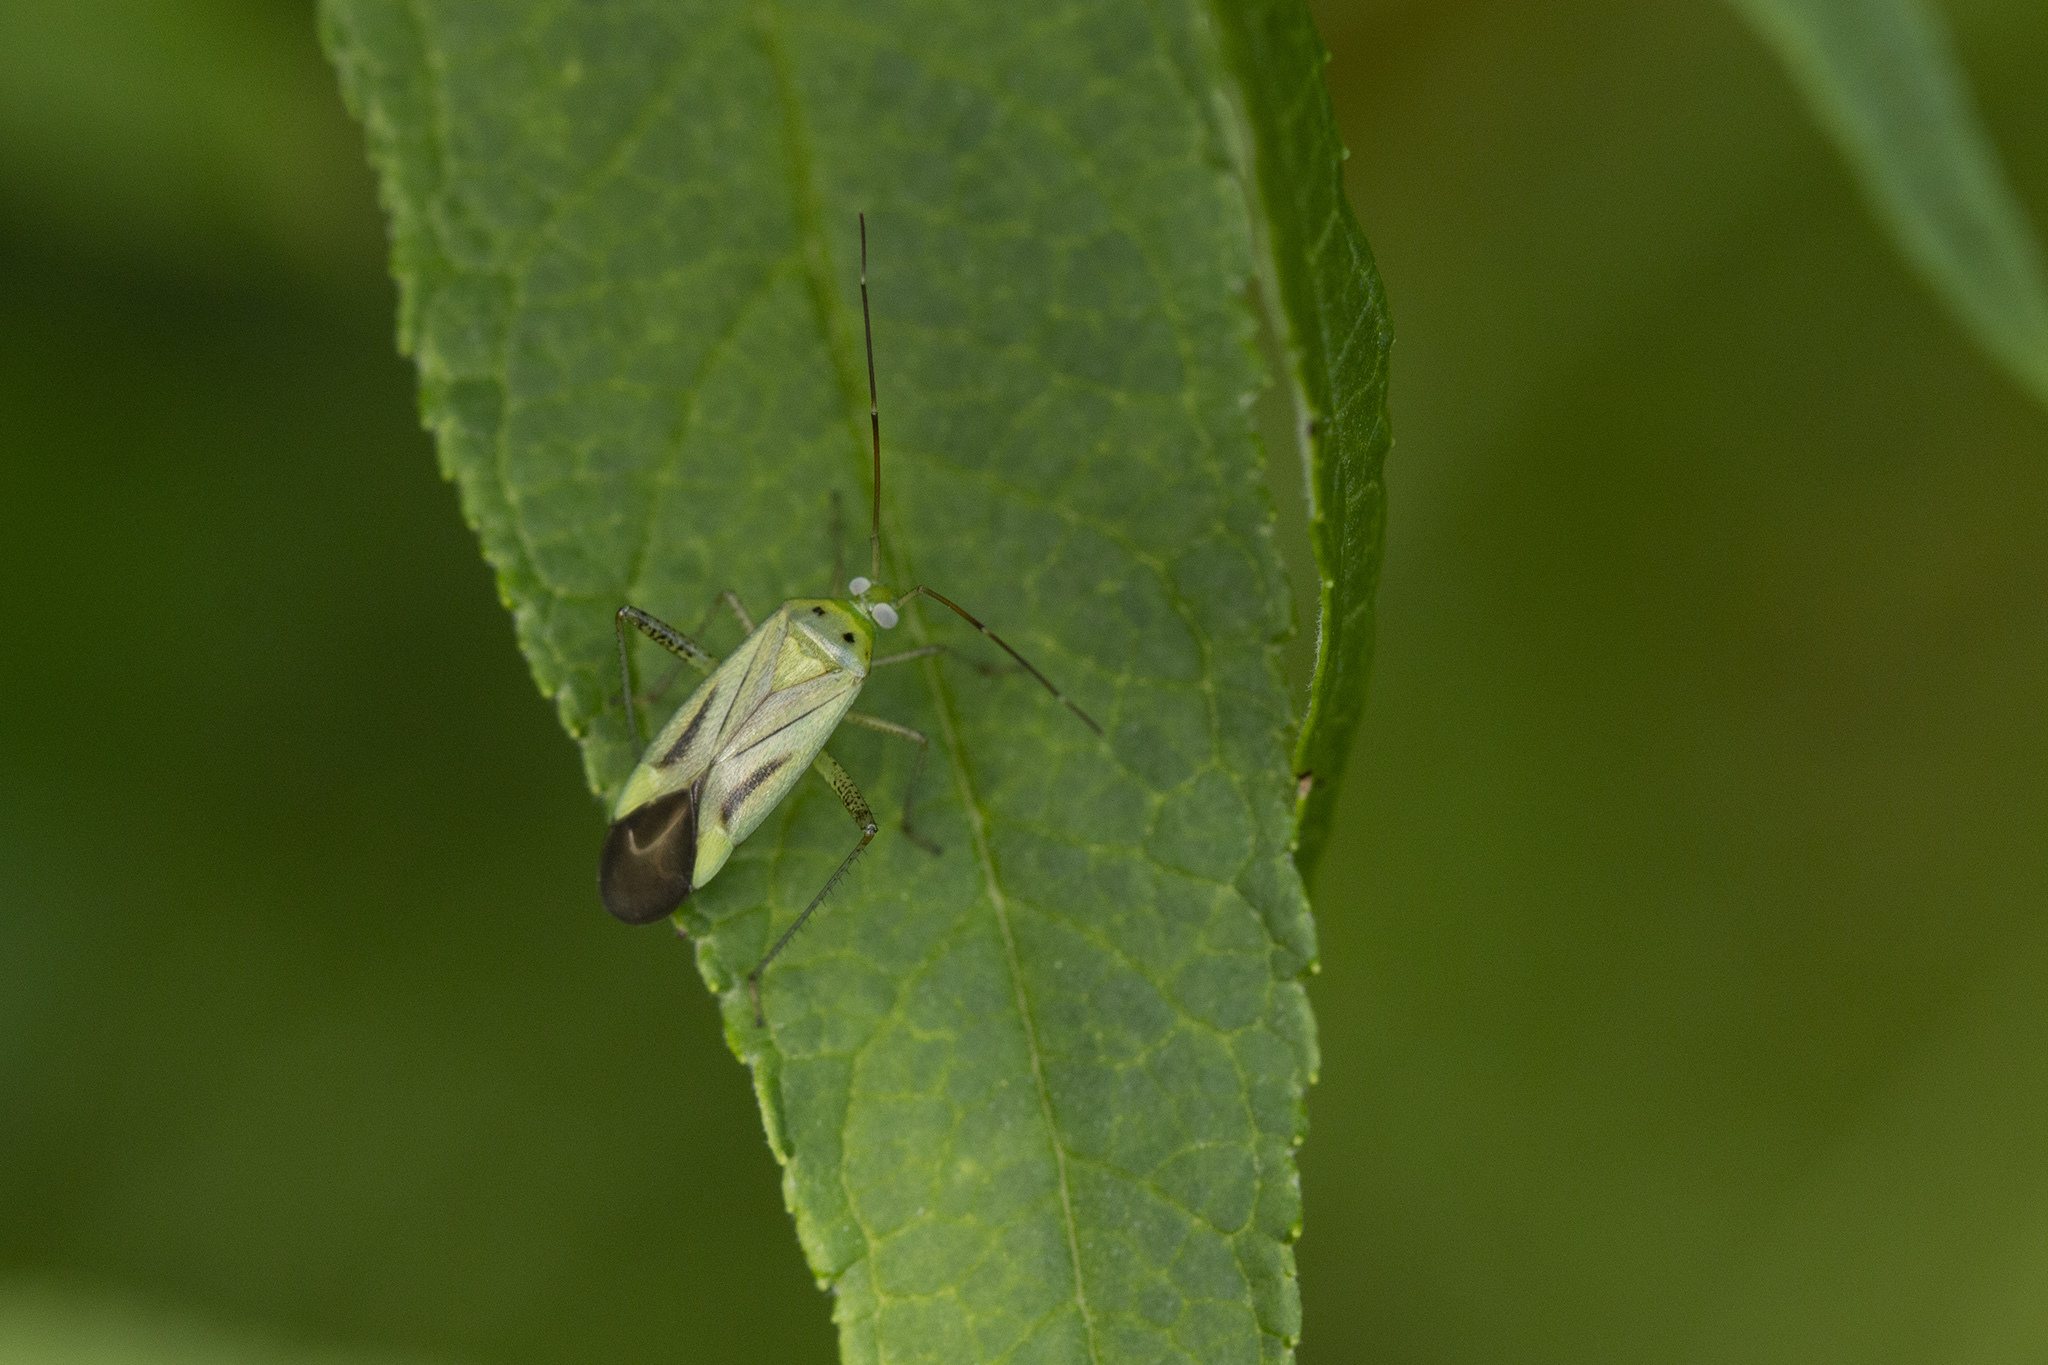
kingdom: Animalia
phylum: Arthropoda
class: Insecta
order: Hemiptera
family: Miridae
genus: Adelphocoris
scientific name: Adelphocoris quadripunctatus
